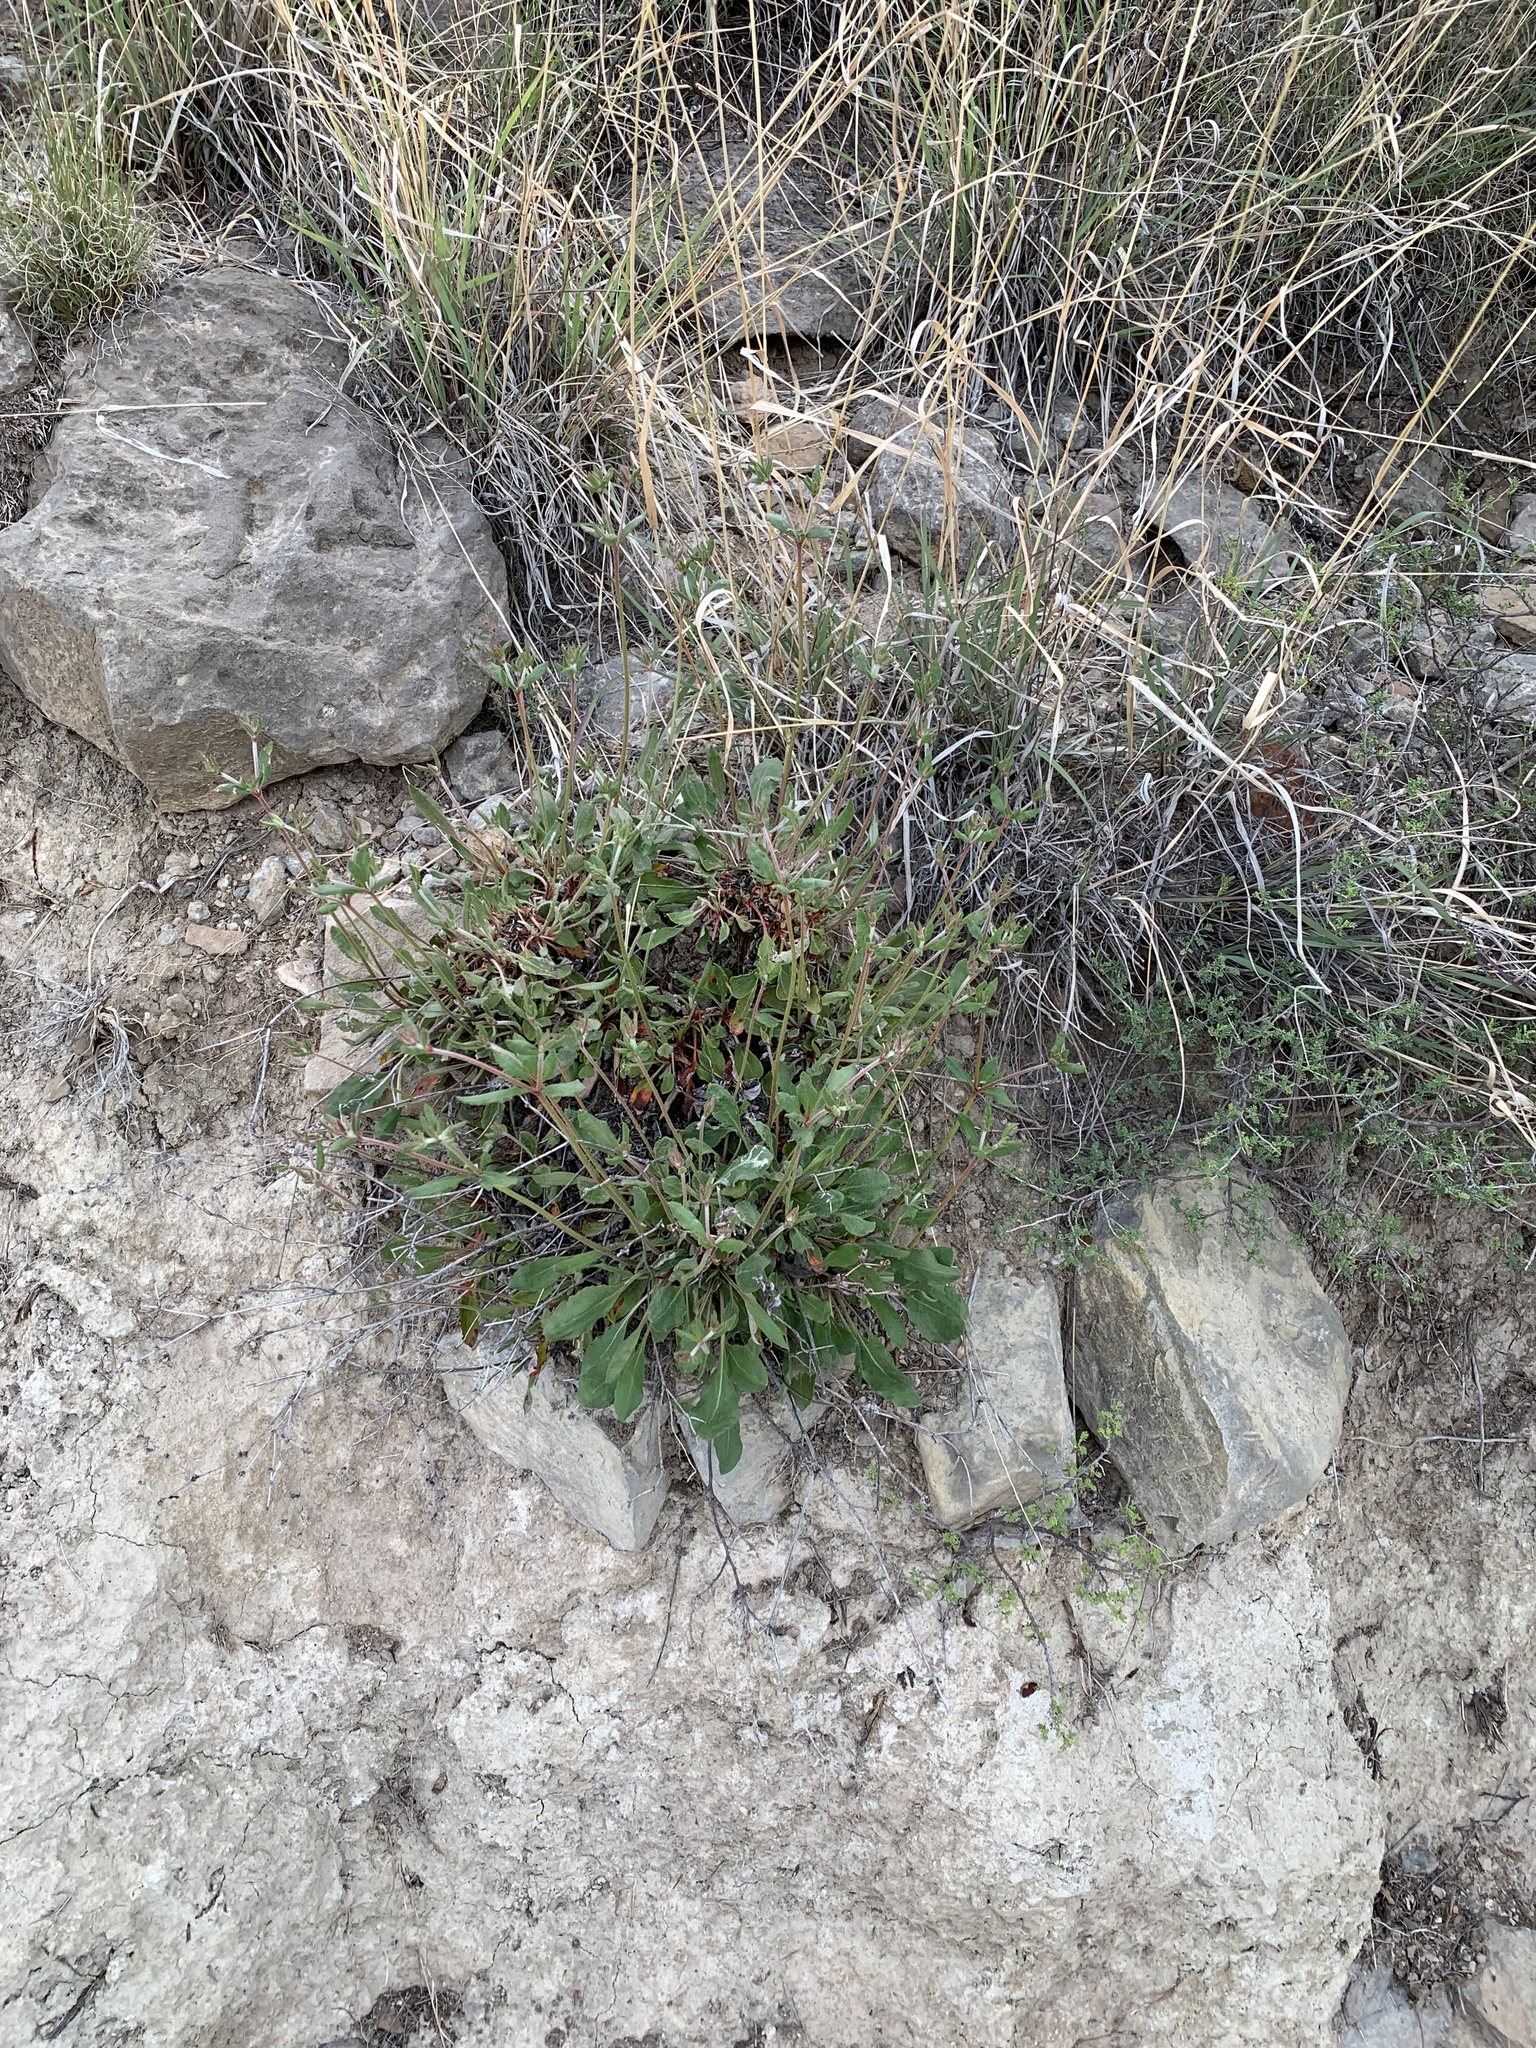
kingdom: Plantae
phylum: Tracheophyta
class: Magnoliopsida
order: Caryophyllales
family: Polygonaceae
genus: Eriogonum
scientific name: Eriogonum wootonii
